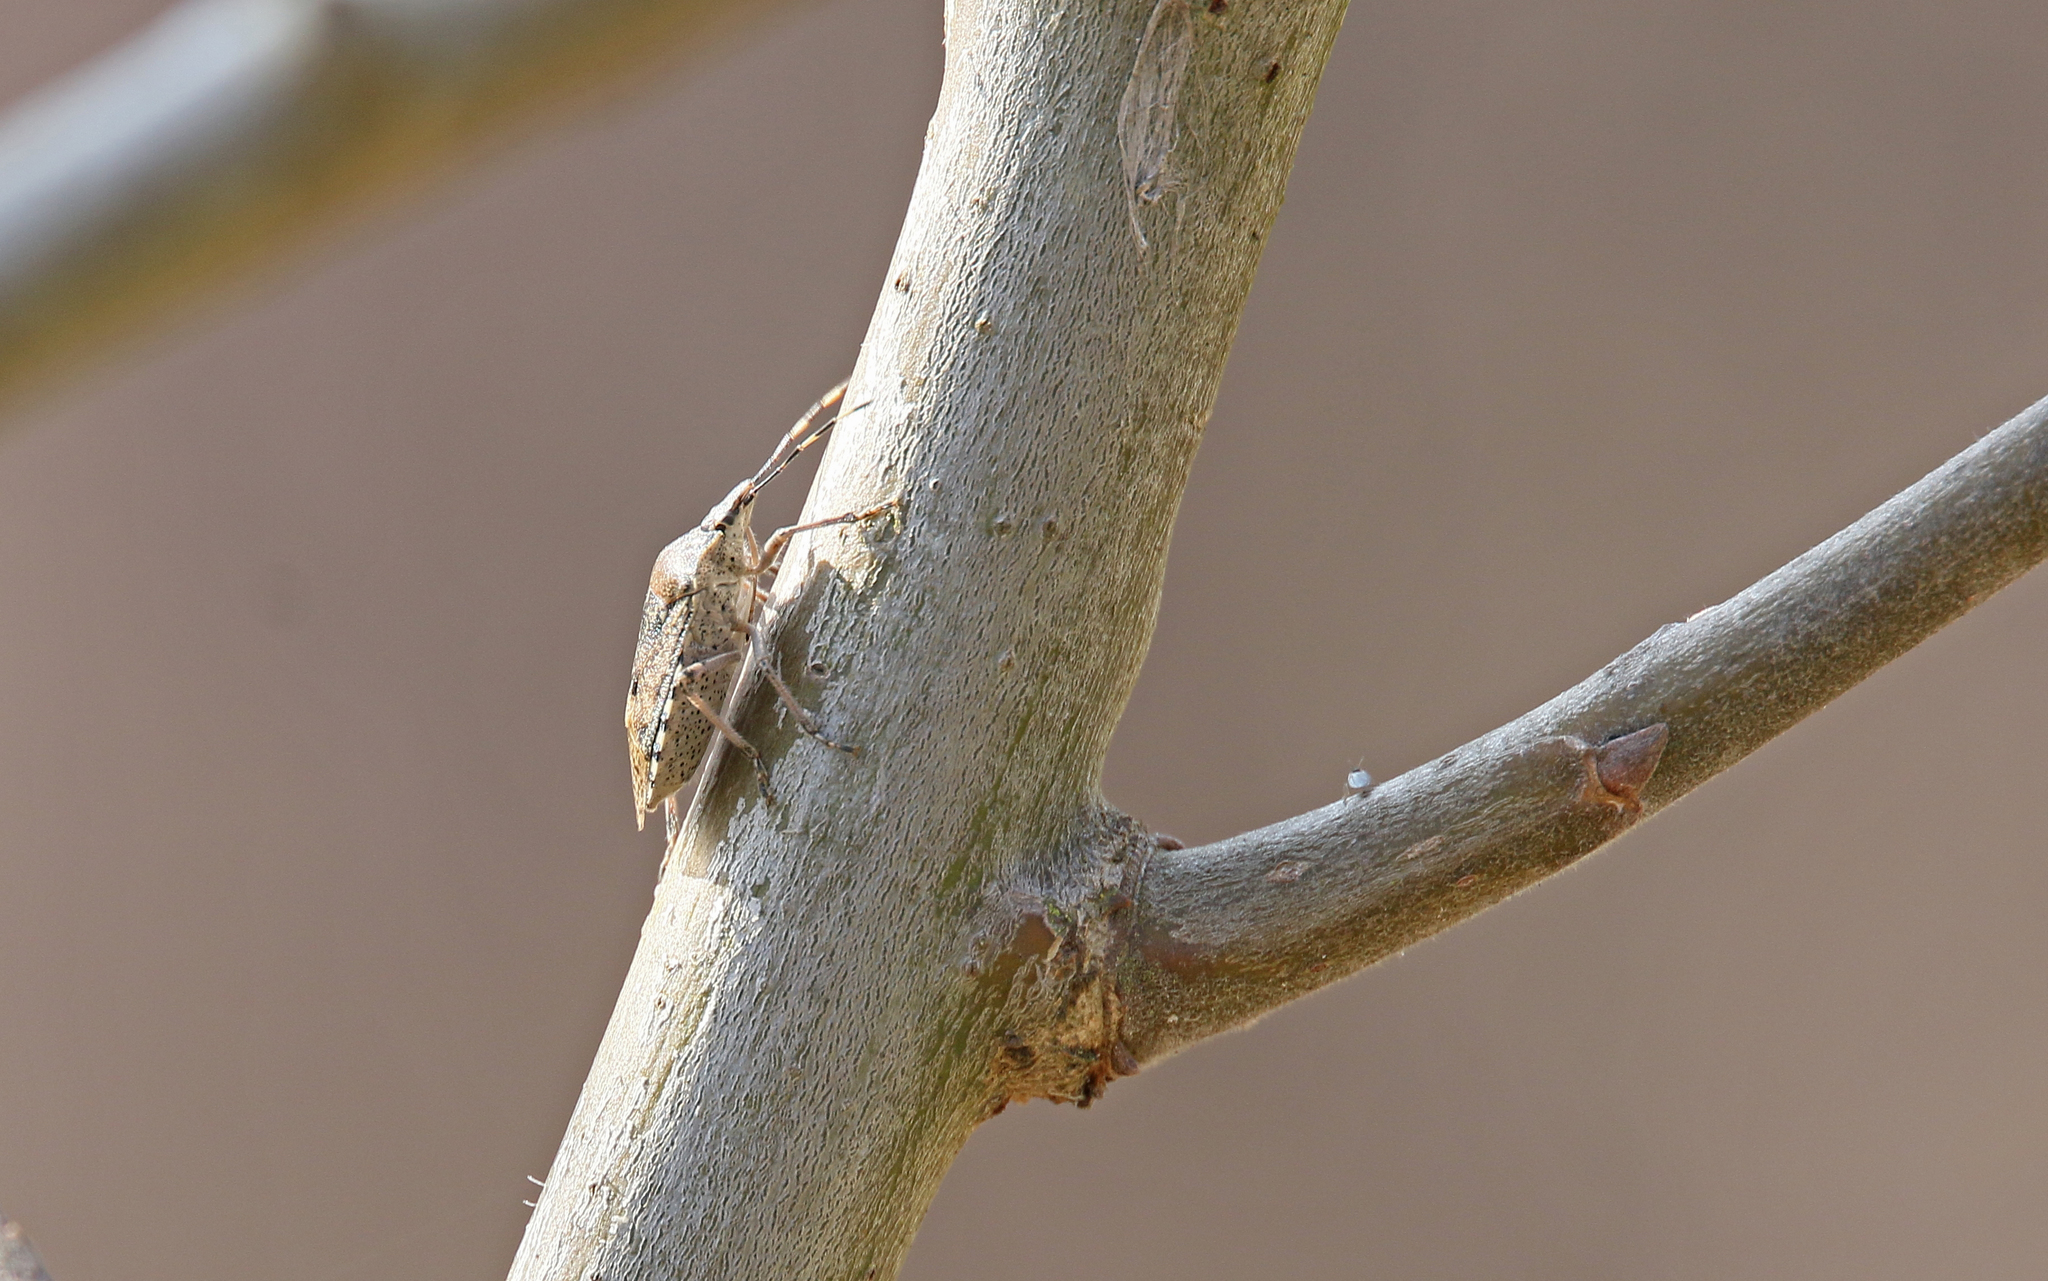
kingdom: Animalia
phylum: Arthropoda
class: Insecta
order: Hemiptera
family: Pentatomidae
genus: Rhaphigaster
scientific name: Rhaphigaster nebulosa
